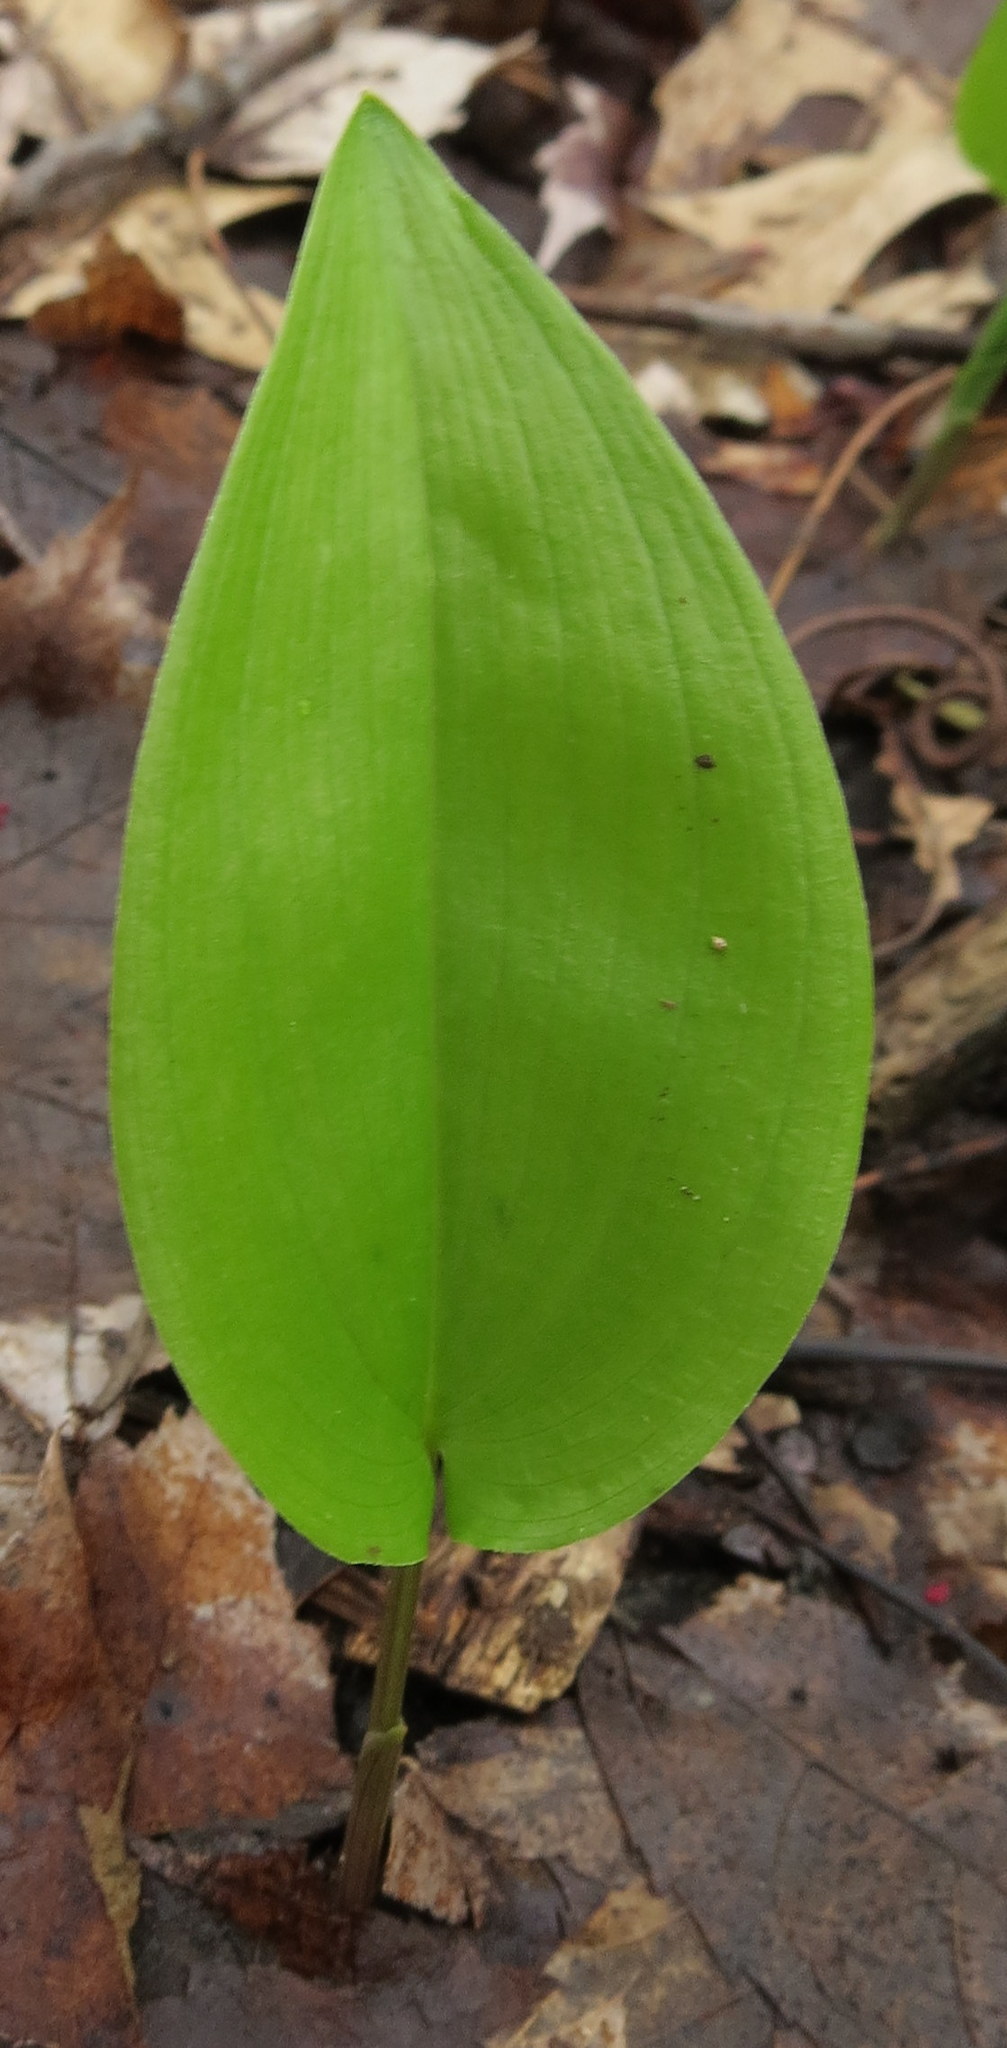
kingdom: Plantae
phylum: Tracheophyta
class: Liliopsida
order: Asparagales
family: Asparagaceae
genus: Maianthemum
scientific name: Maianthemum canadense
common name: False lily-of-the-valley
